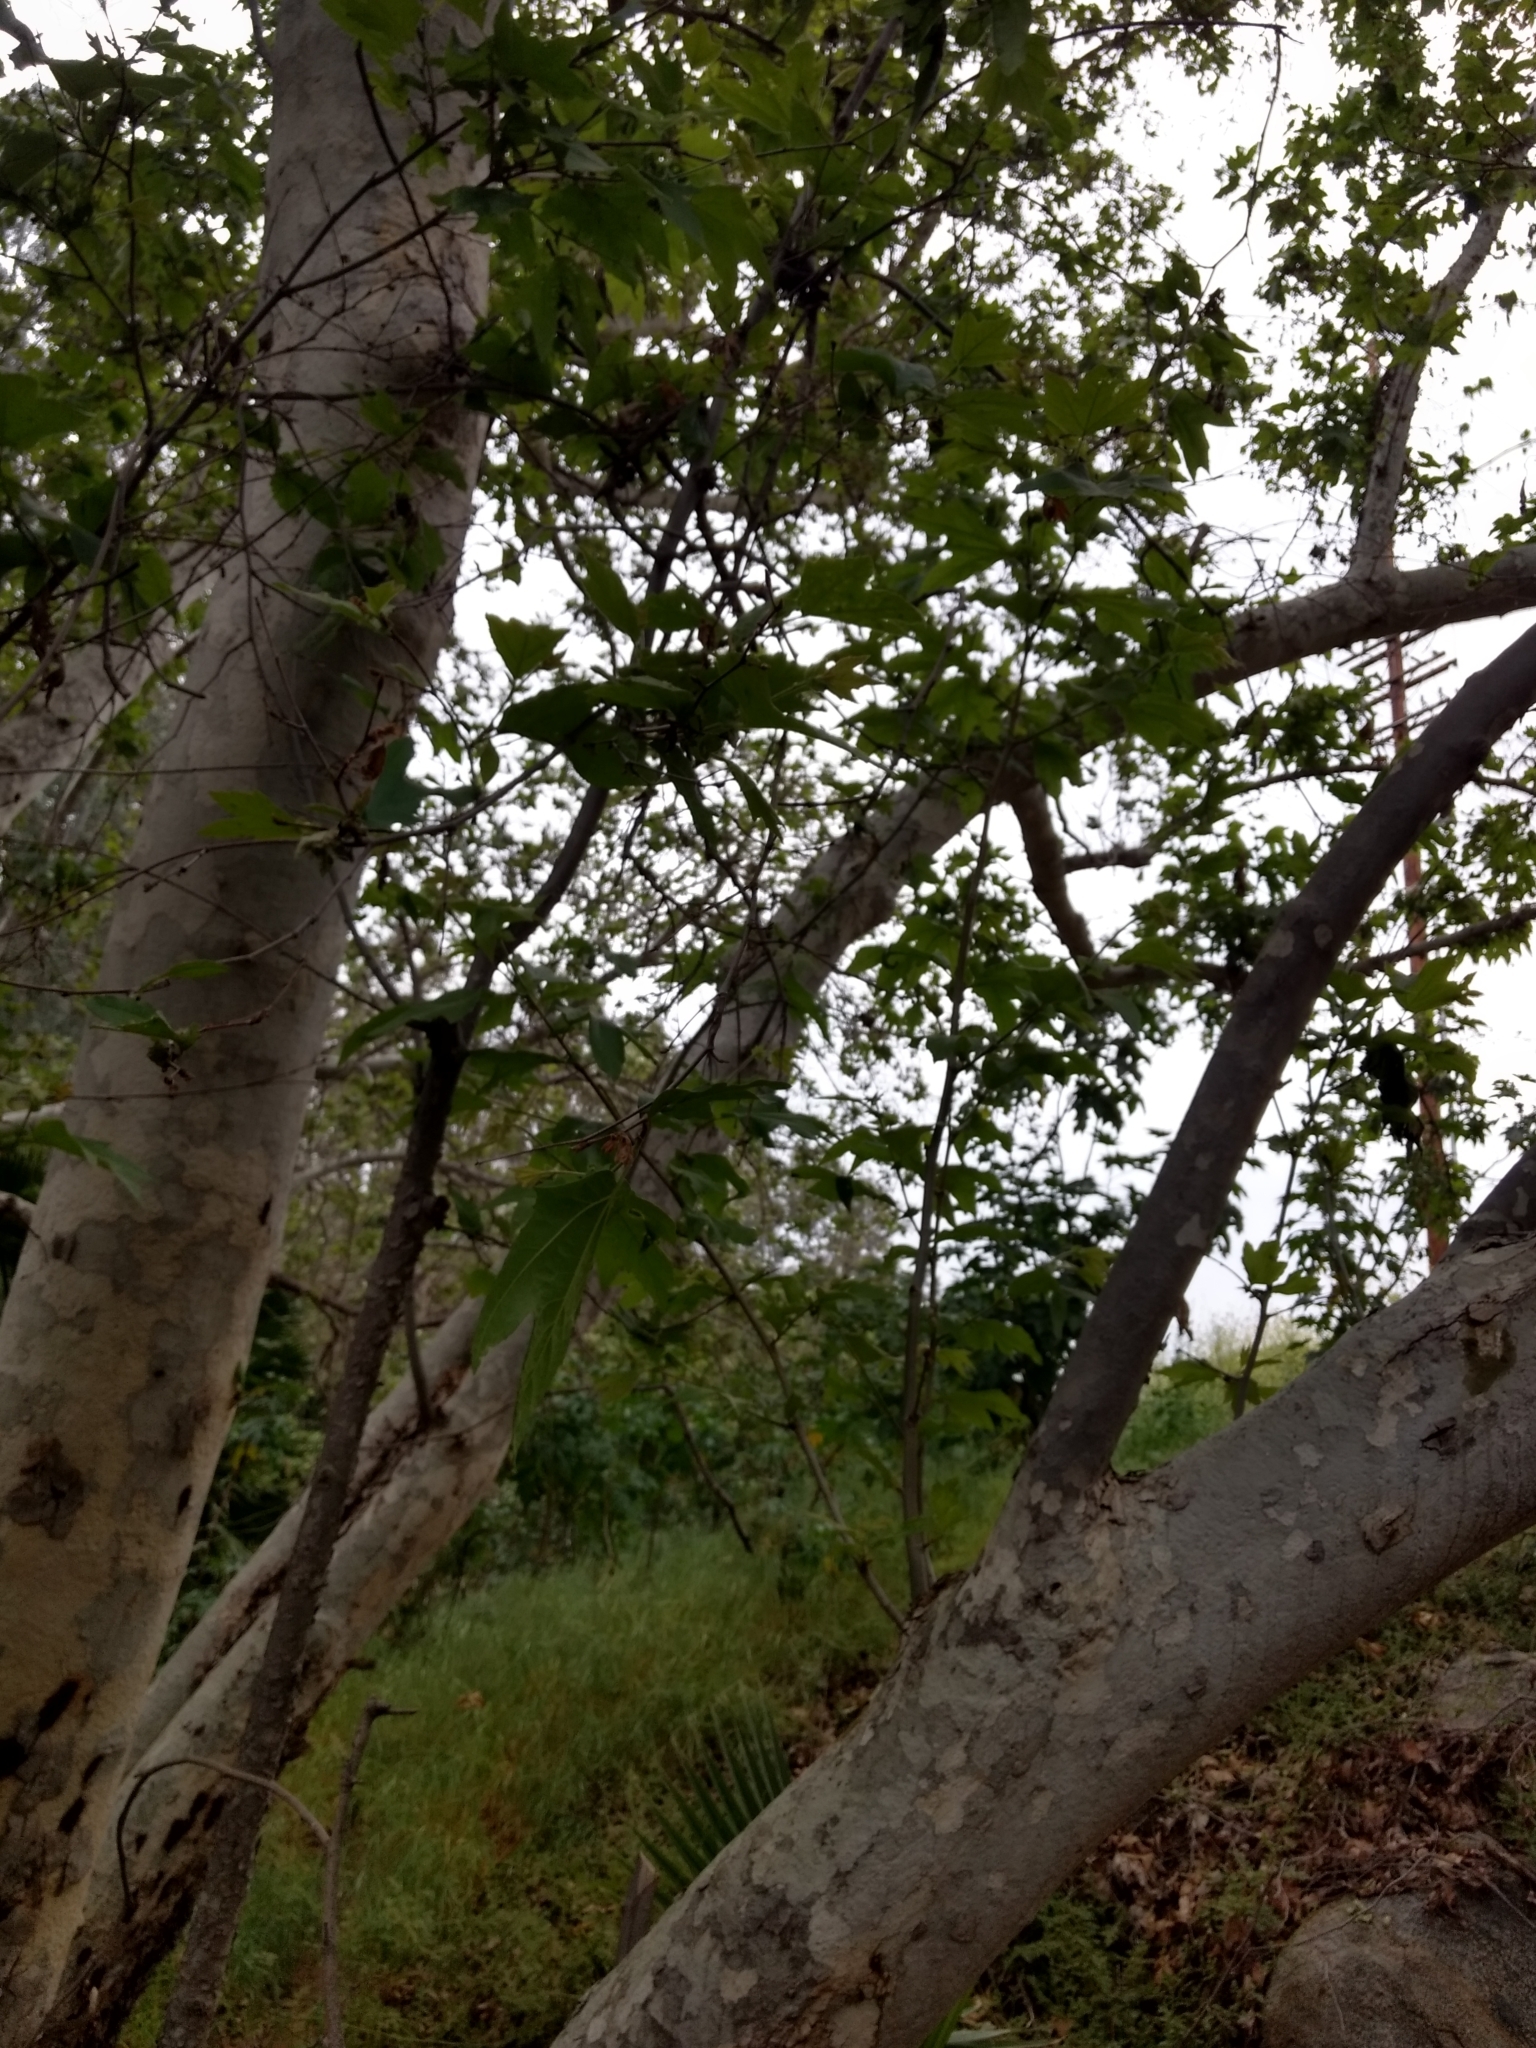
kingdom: Plantae
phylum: Tracheophyta
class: Magnoliopsida
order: Proteales
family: Platanaceae
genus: Platanus
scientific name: Platanus racemosa
